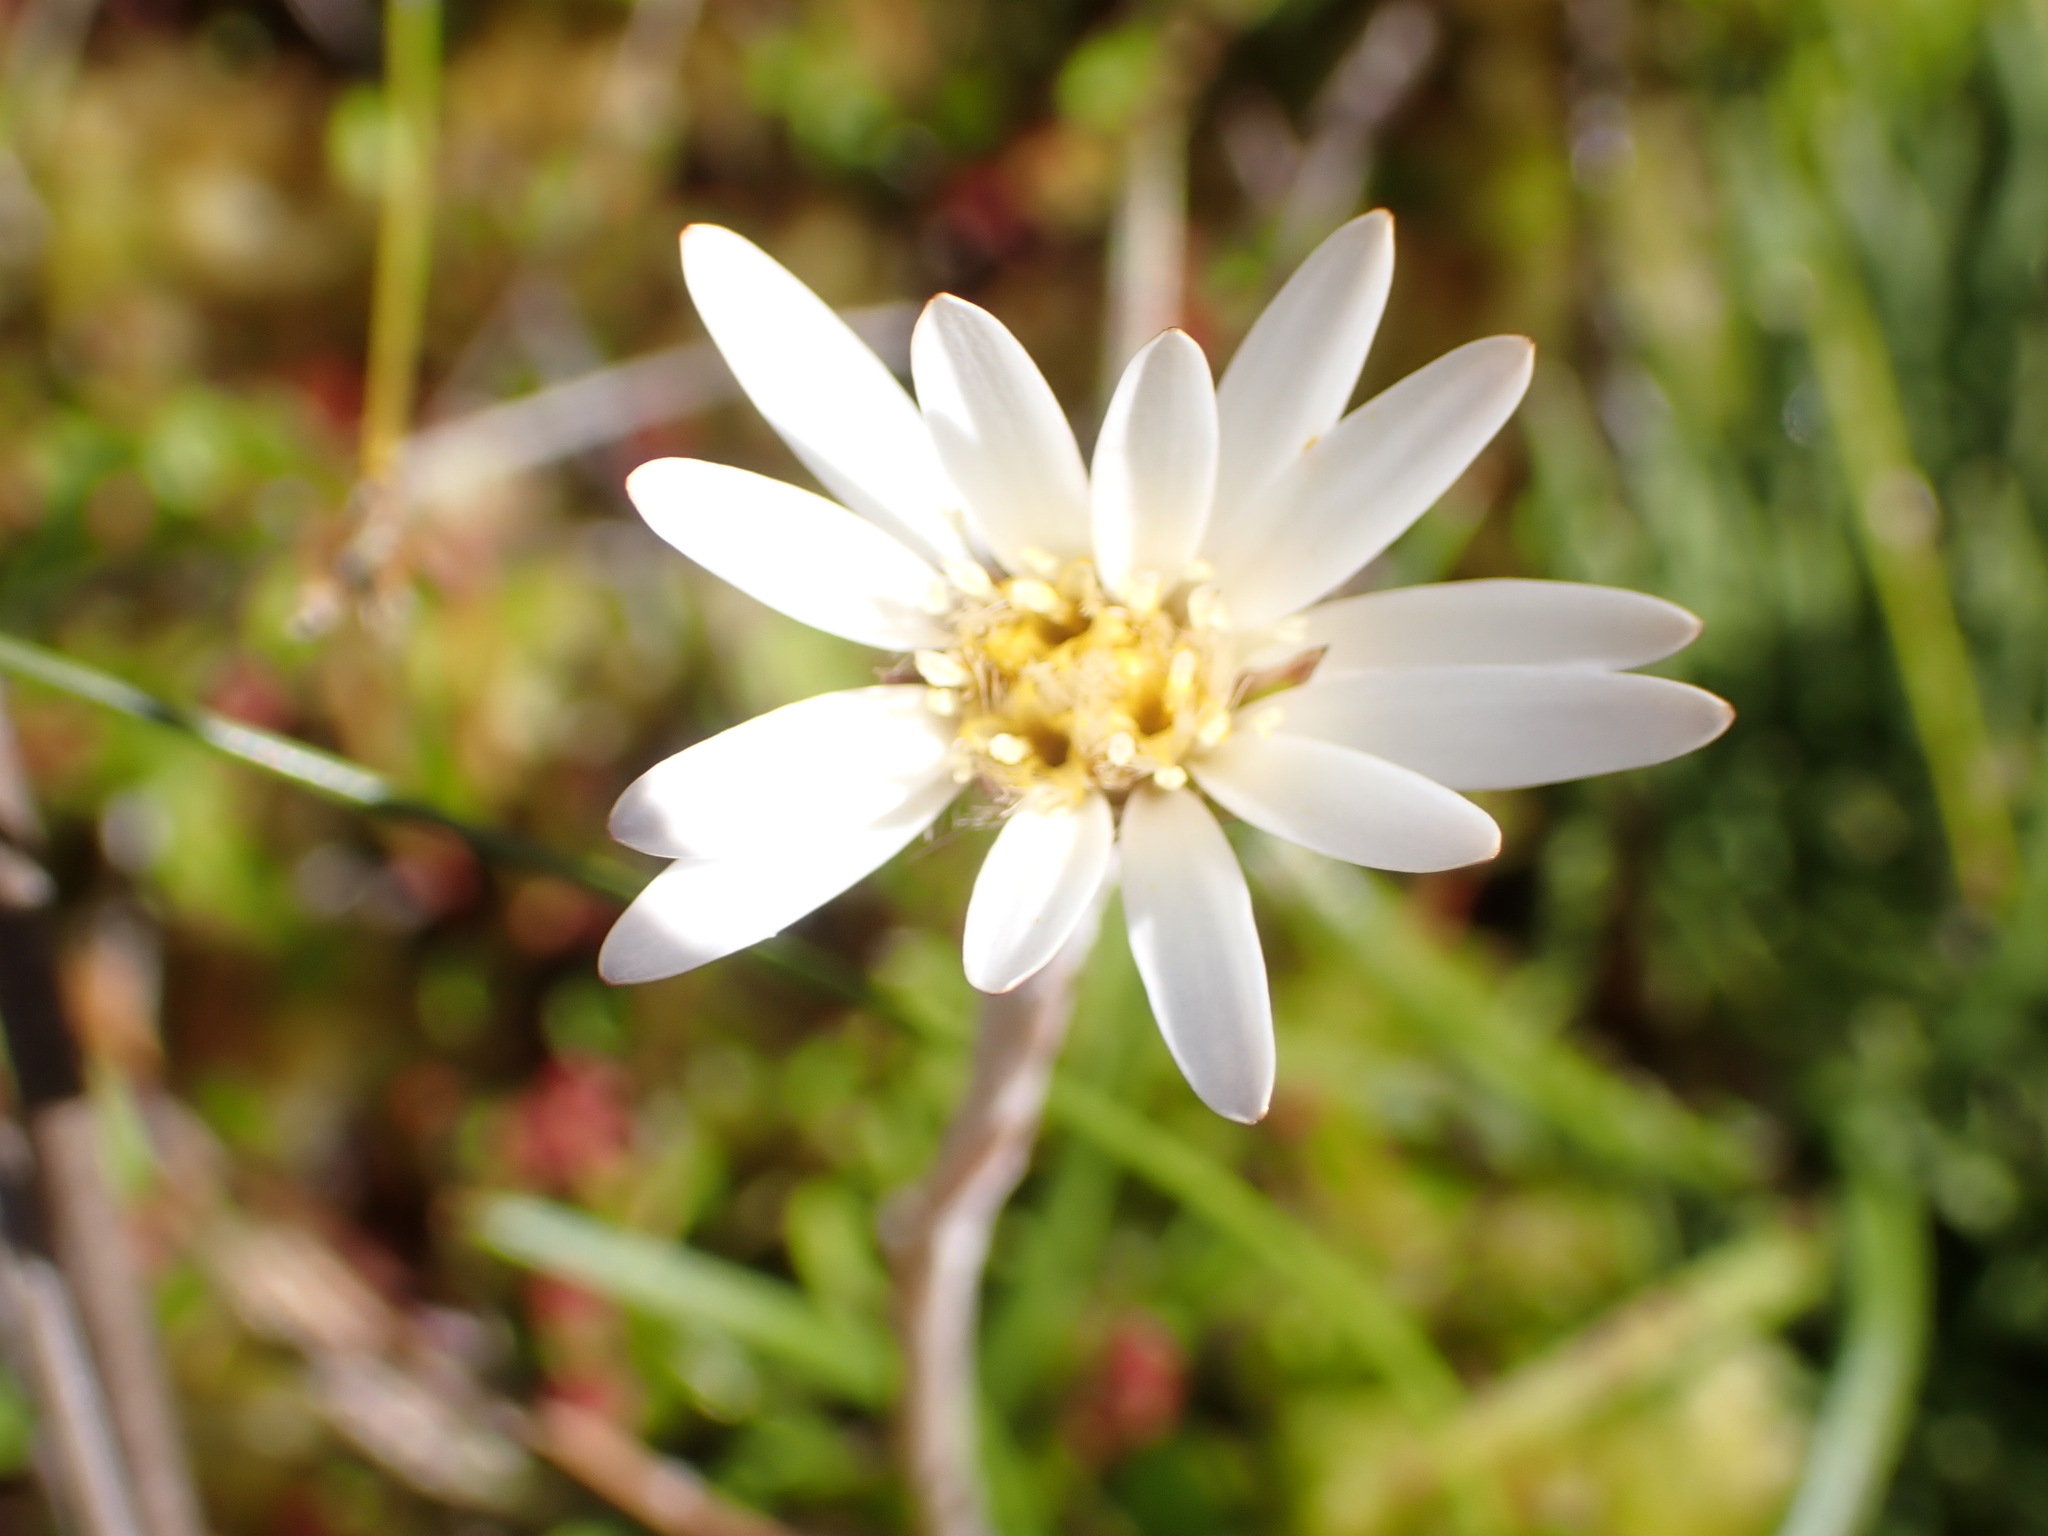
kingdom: Plantae
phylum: Tracheophyta
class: Magnoliopsida
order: Asterales
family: Asteraceae
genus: Celmisia
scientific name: Celmisia gracilenta
